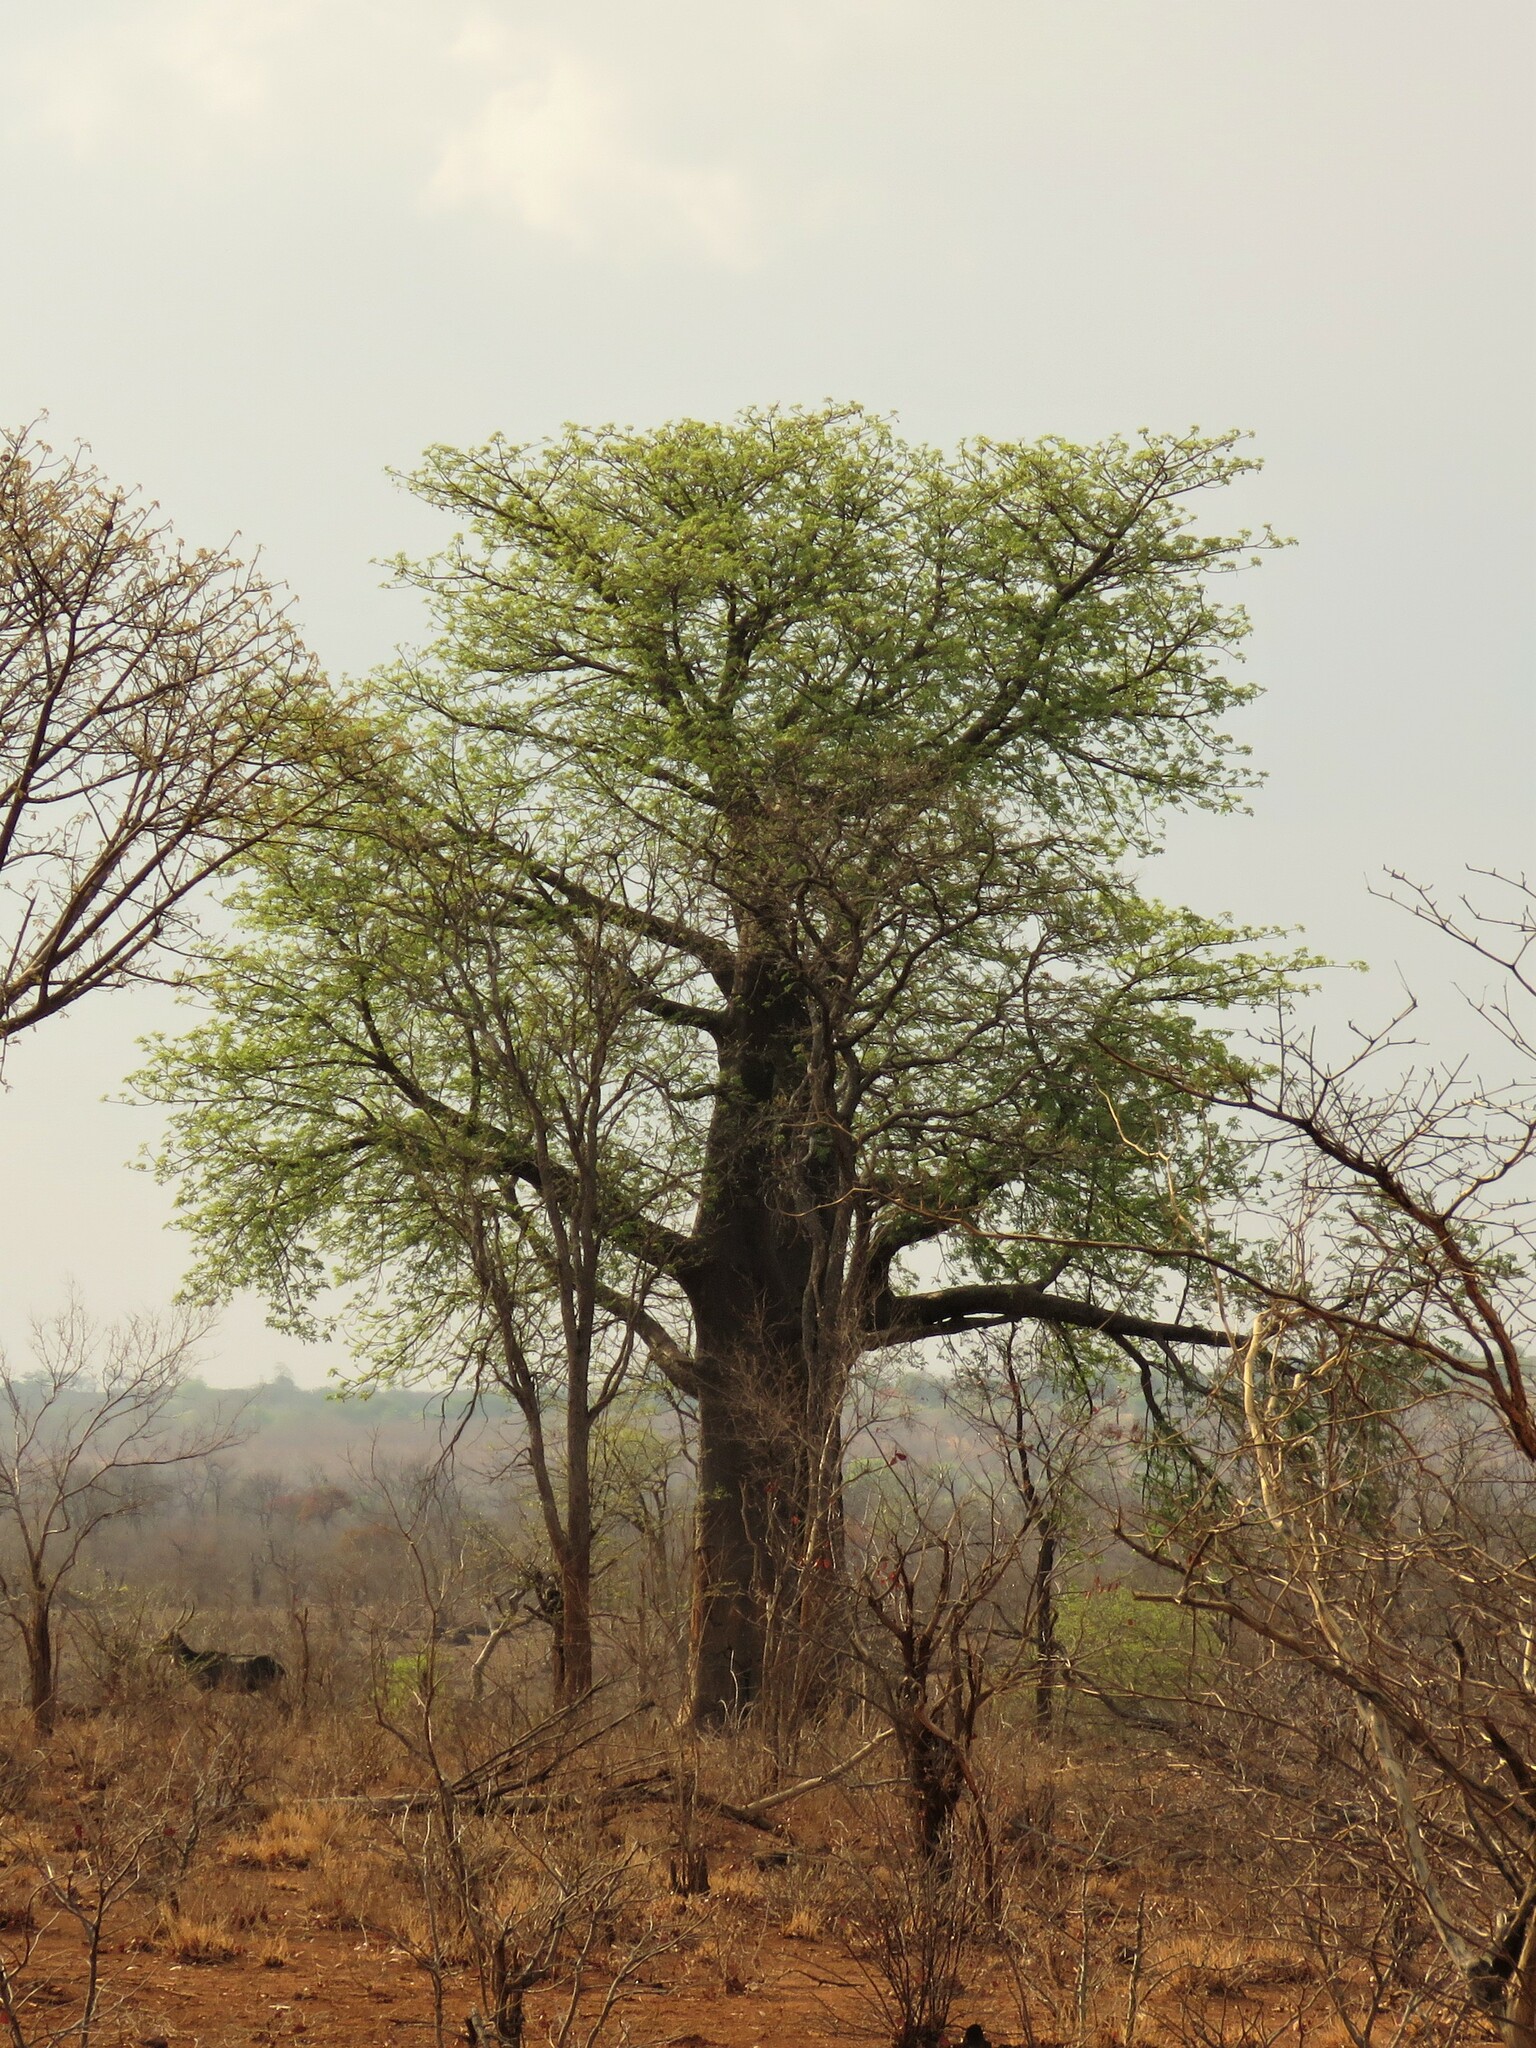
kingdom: Plantae
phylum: Tracheophyta
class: Magnoliopsida
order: Malvales
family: Malvaceae
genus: Adansonia
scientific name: Adansonia digitata
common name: Dead-rat-tree
